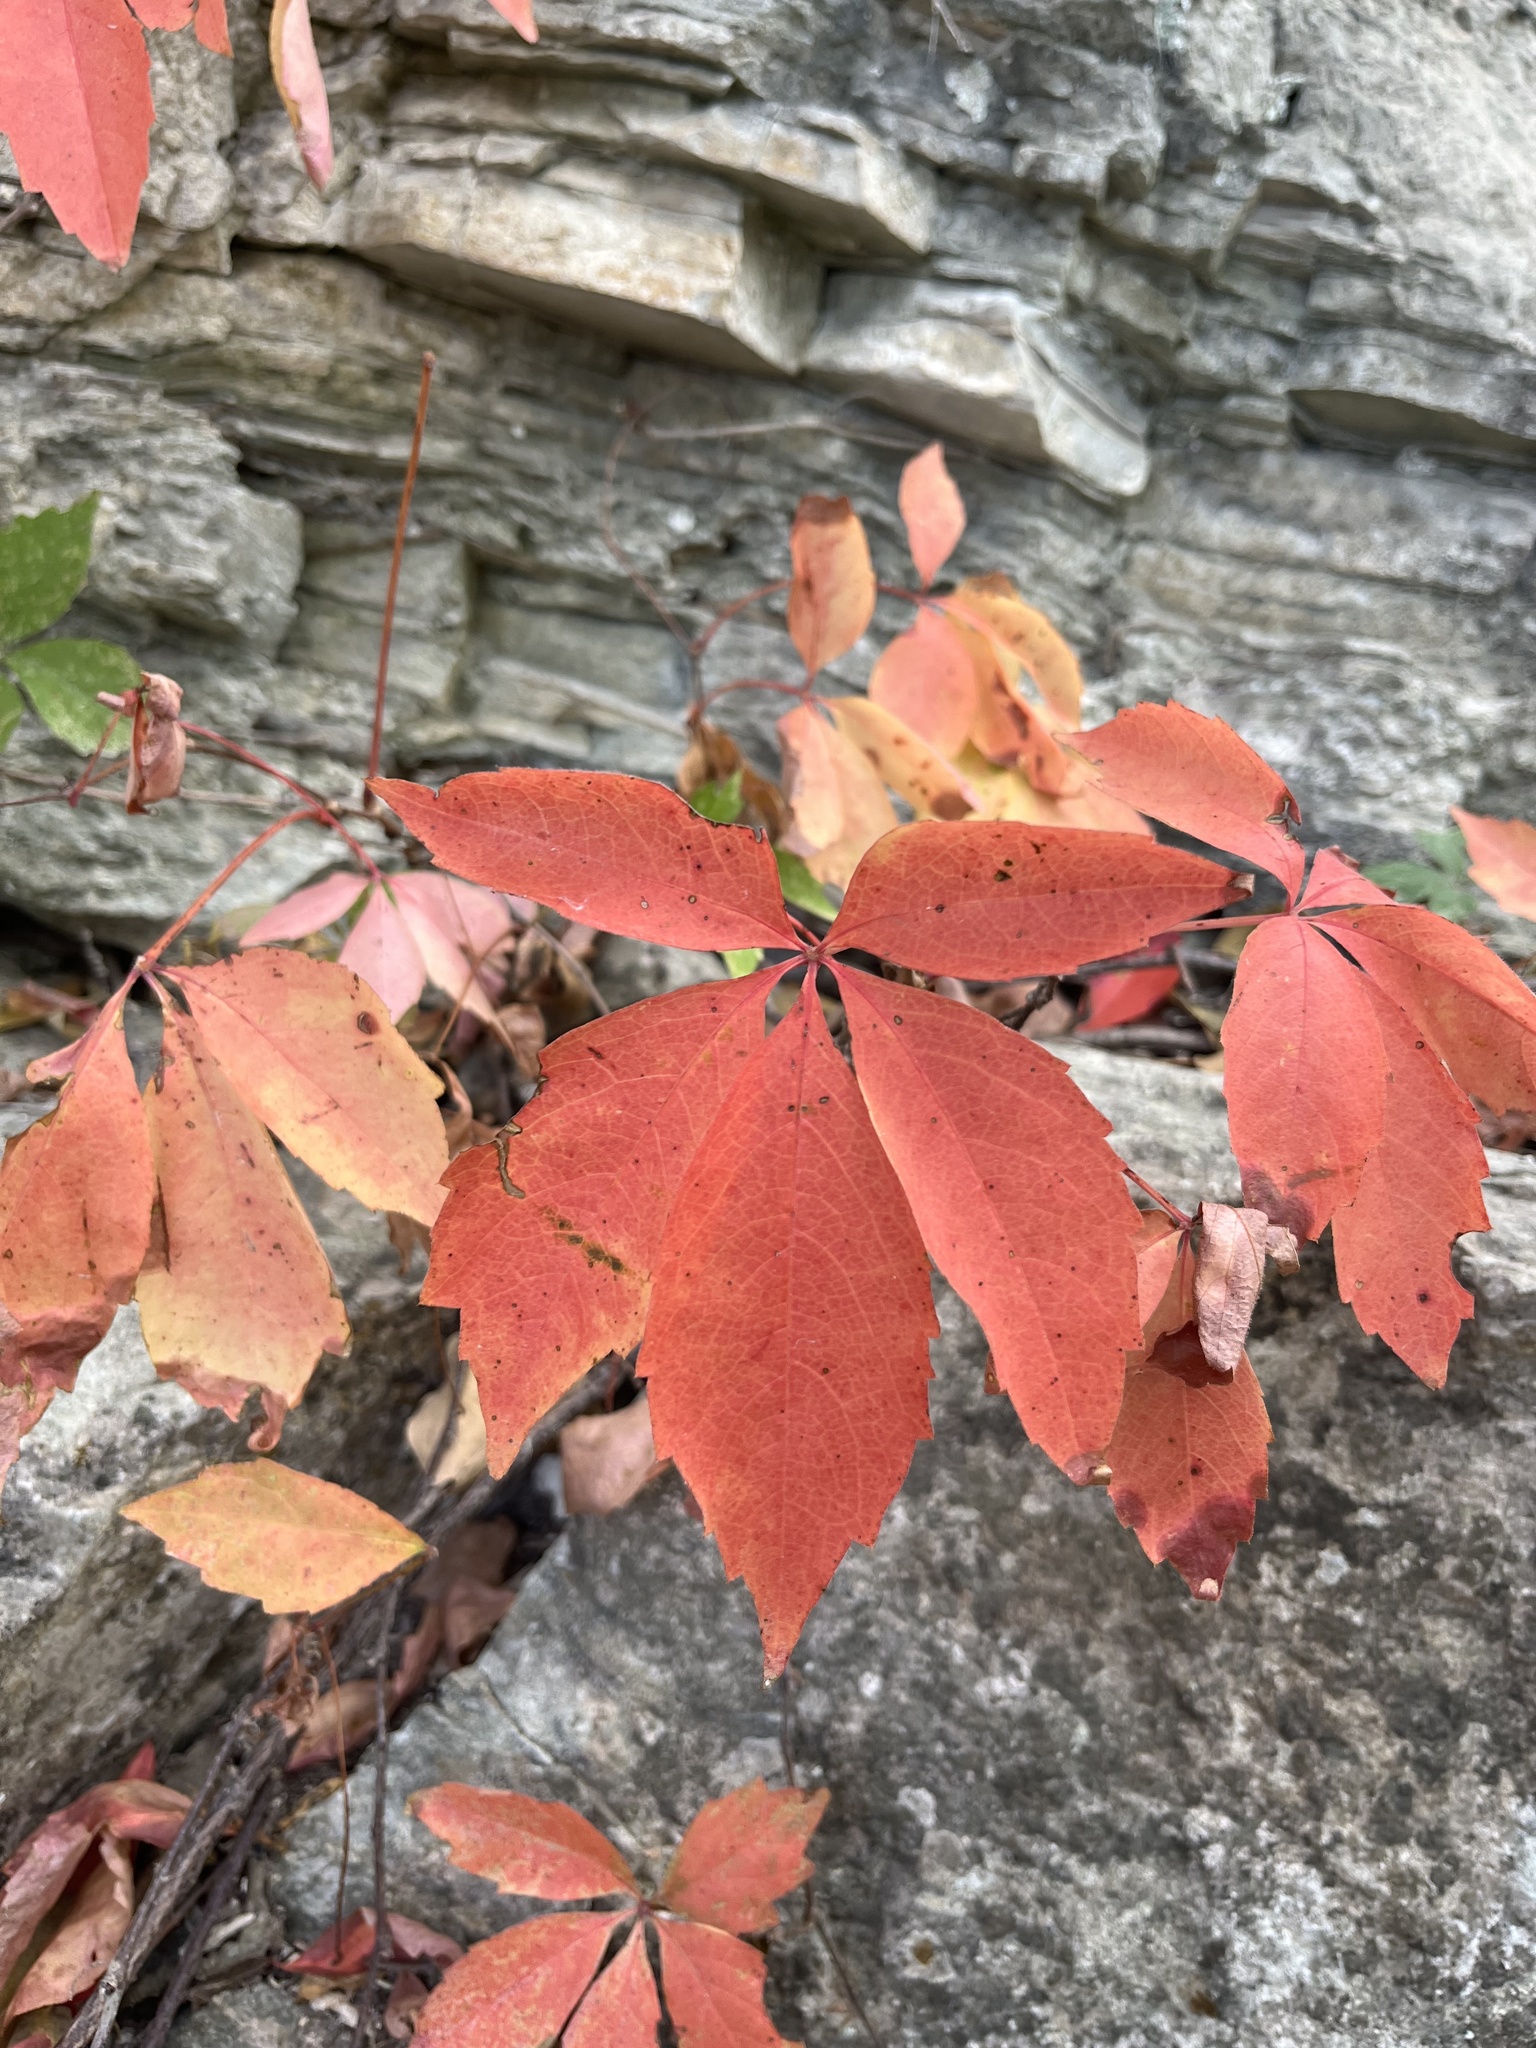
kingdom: Plantae
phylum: Tracheophyta
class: Magnoliopsida
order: Vitales
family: Vitaceae
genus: Parthenocissus
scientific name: Parthenocissus quinquefolia
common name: Virginia-creeper
